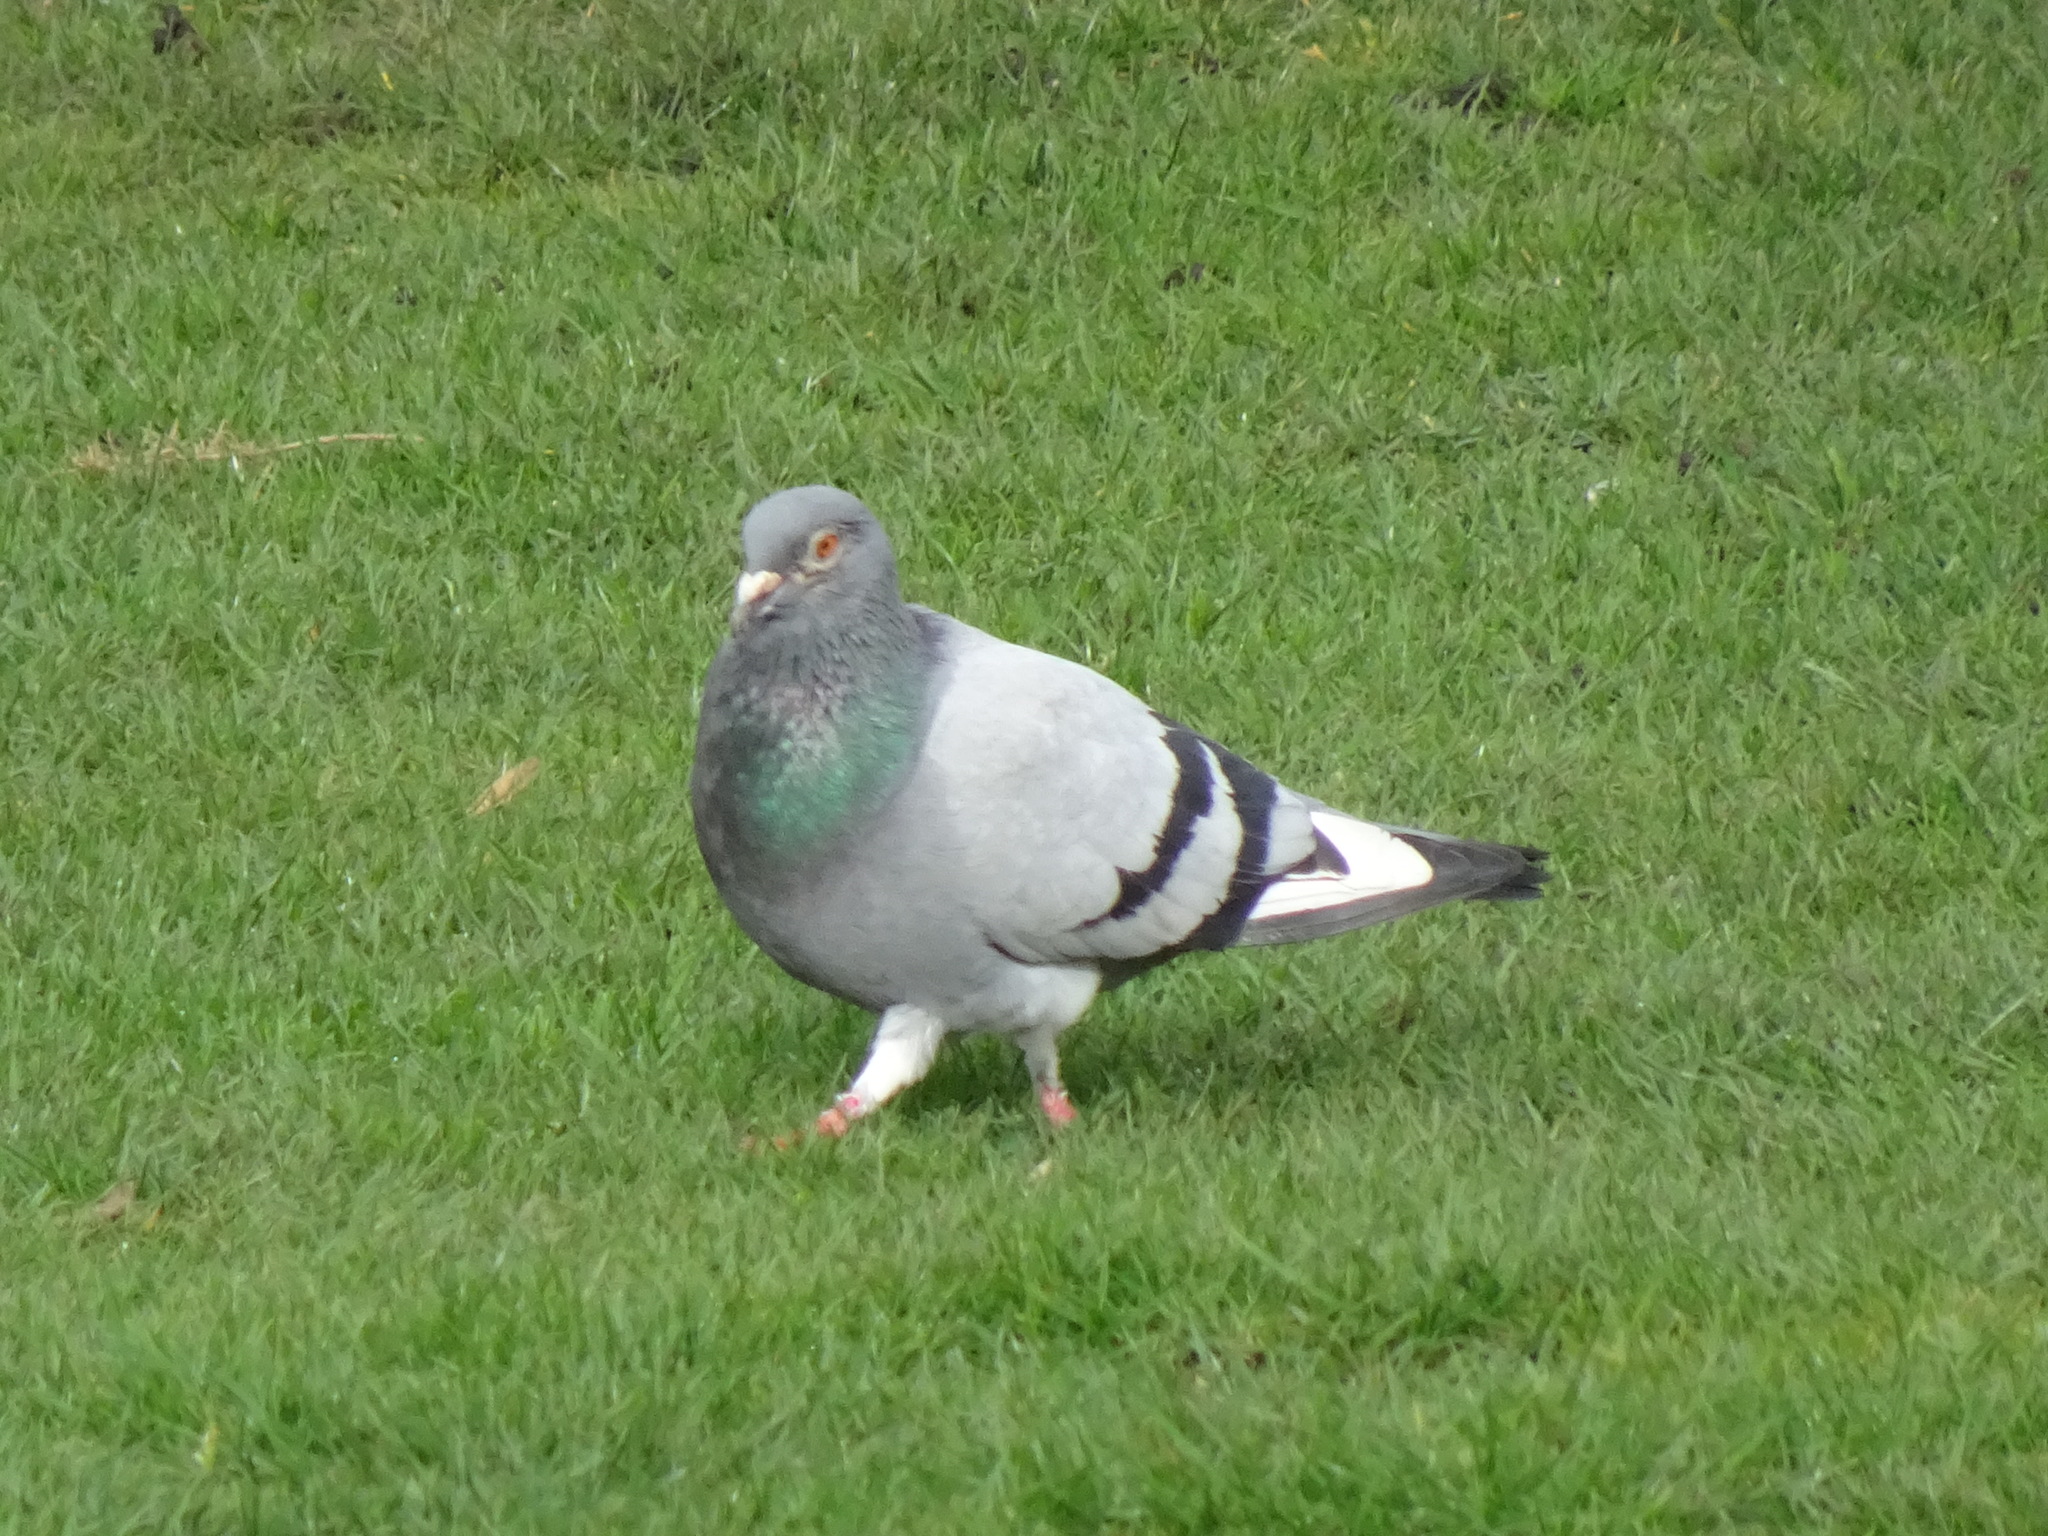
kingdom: Animalia
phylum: Chordata
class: Aves
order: Columbiformes
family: Columbidae
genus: Columba
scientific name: Columba livia
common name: Rock pigeon
